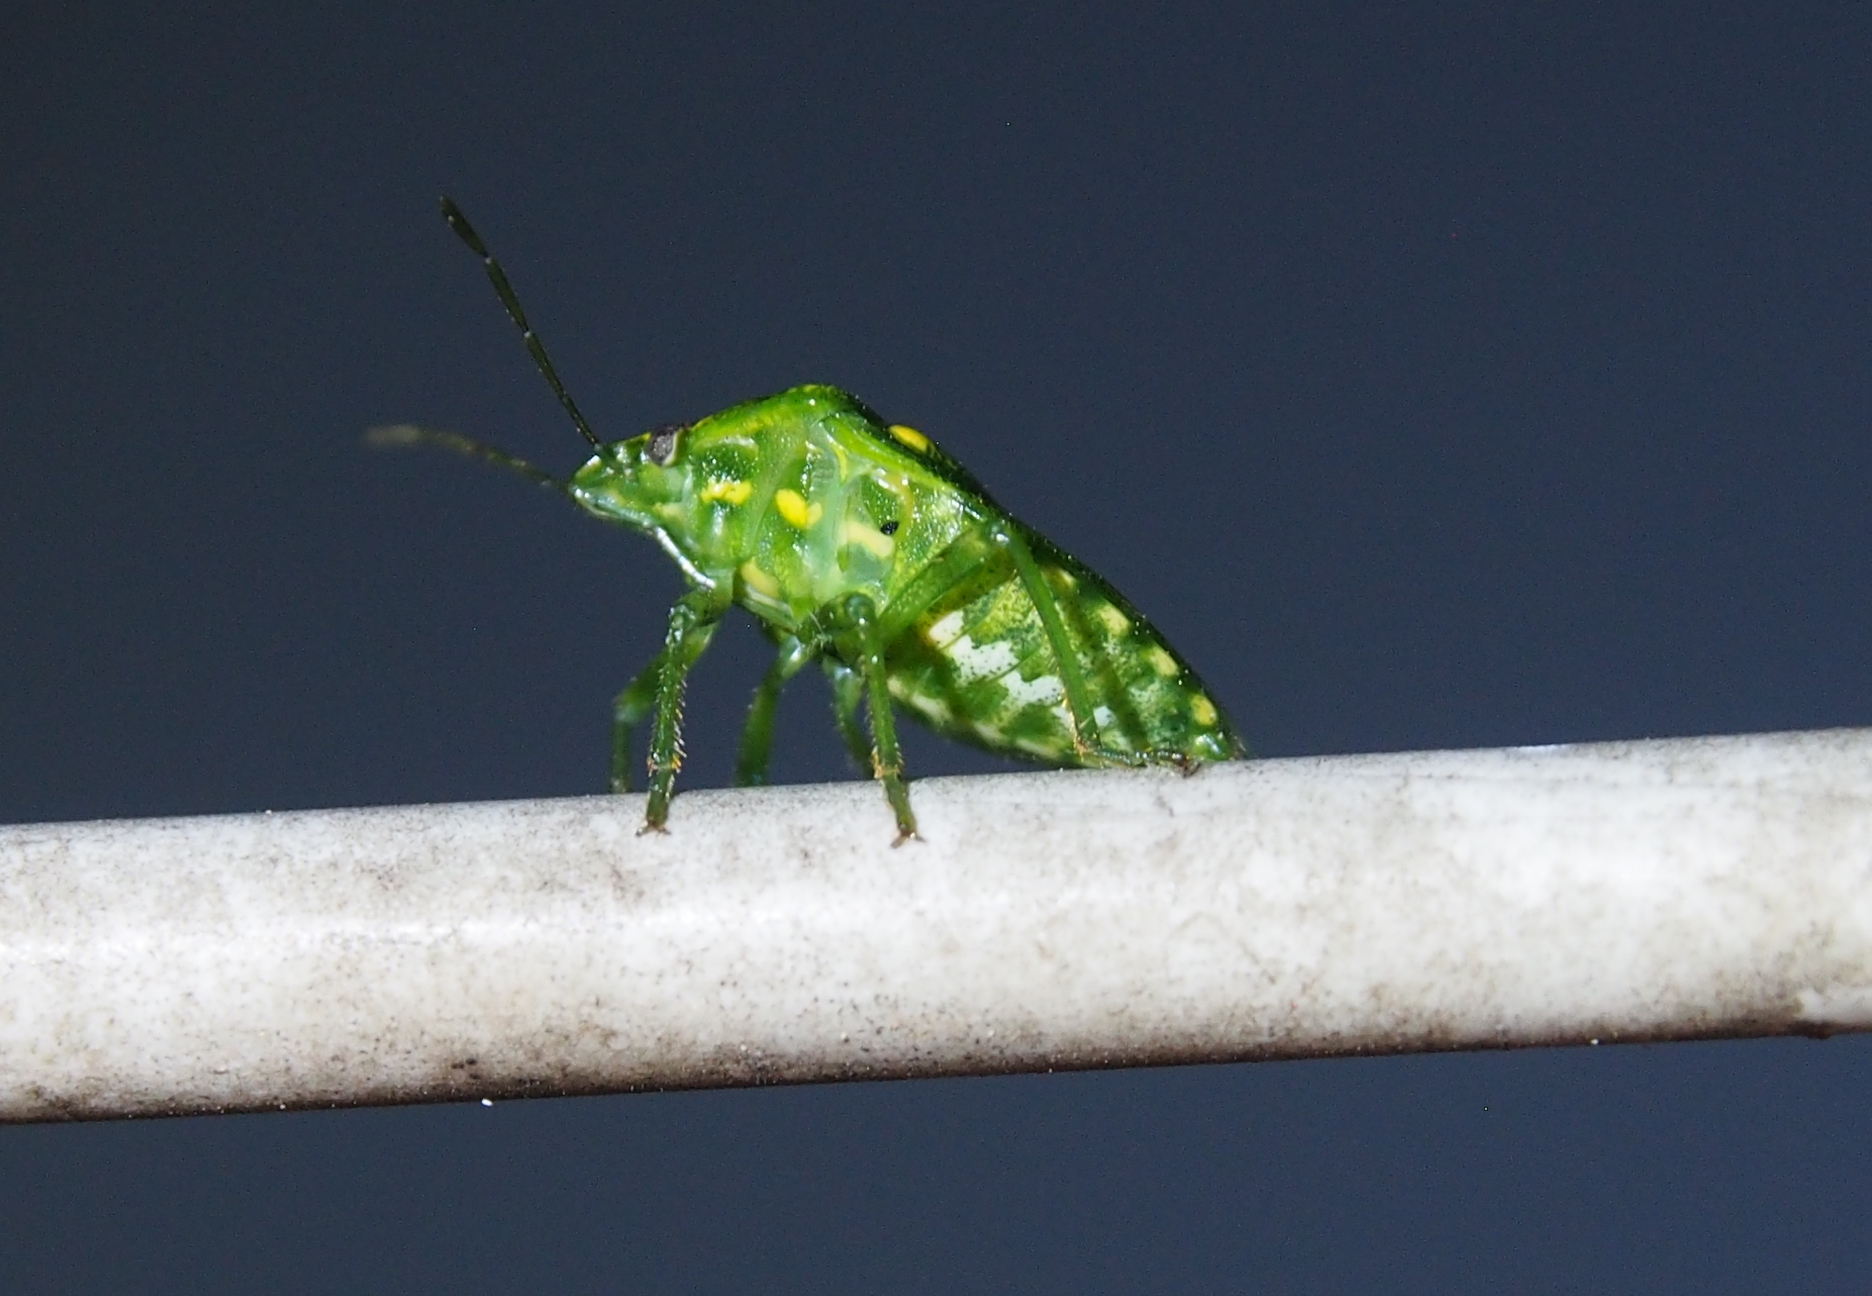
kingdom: Animalia
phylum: Arthropoda
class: Insecta
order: Hemiptera
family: Pentatomidae
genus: Banasa
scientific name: Banasa euchlora
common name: Cedar berry bug
